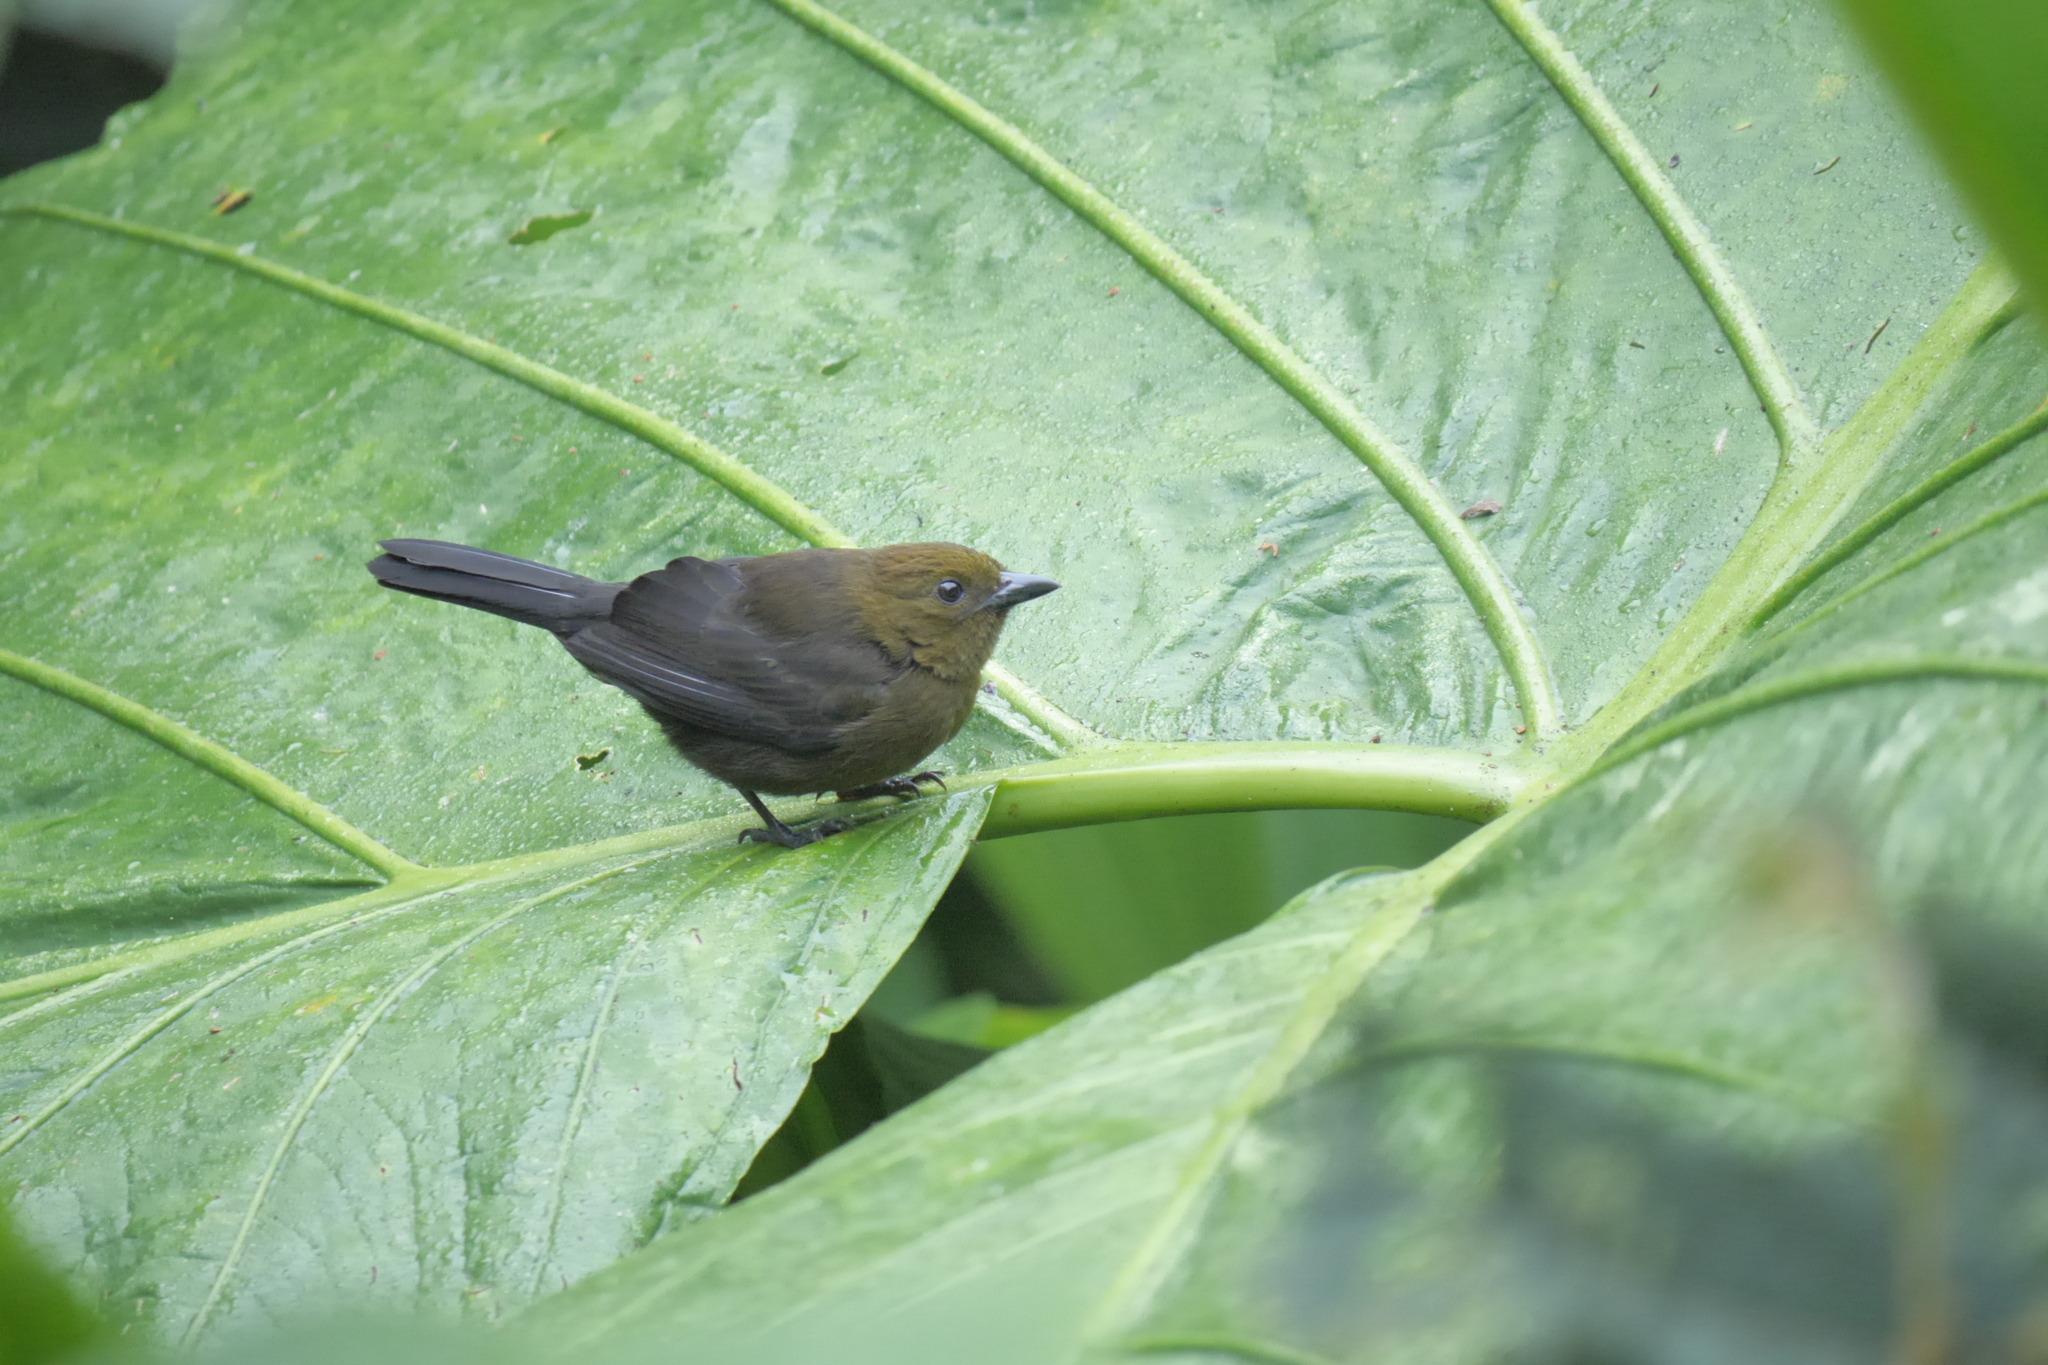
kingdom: Animalia
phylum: Chordata
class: Aves
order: Passeriformes
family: Thraupidae
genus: Tachyphonus
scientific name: Tachyphonus delatrii
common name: Tawny-crested tanager
